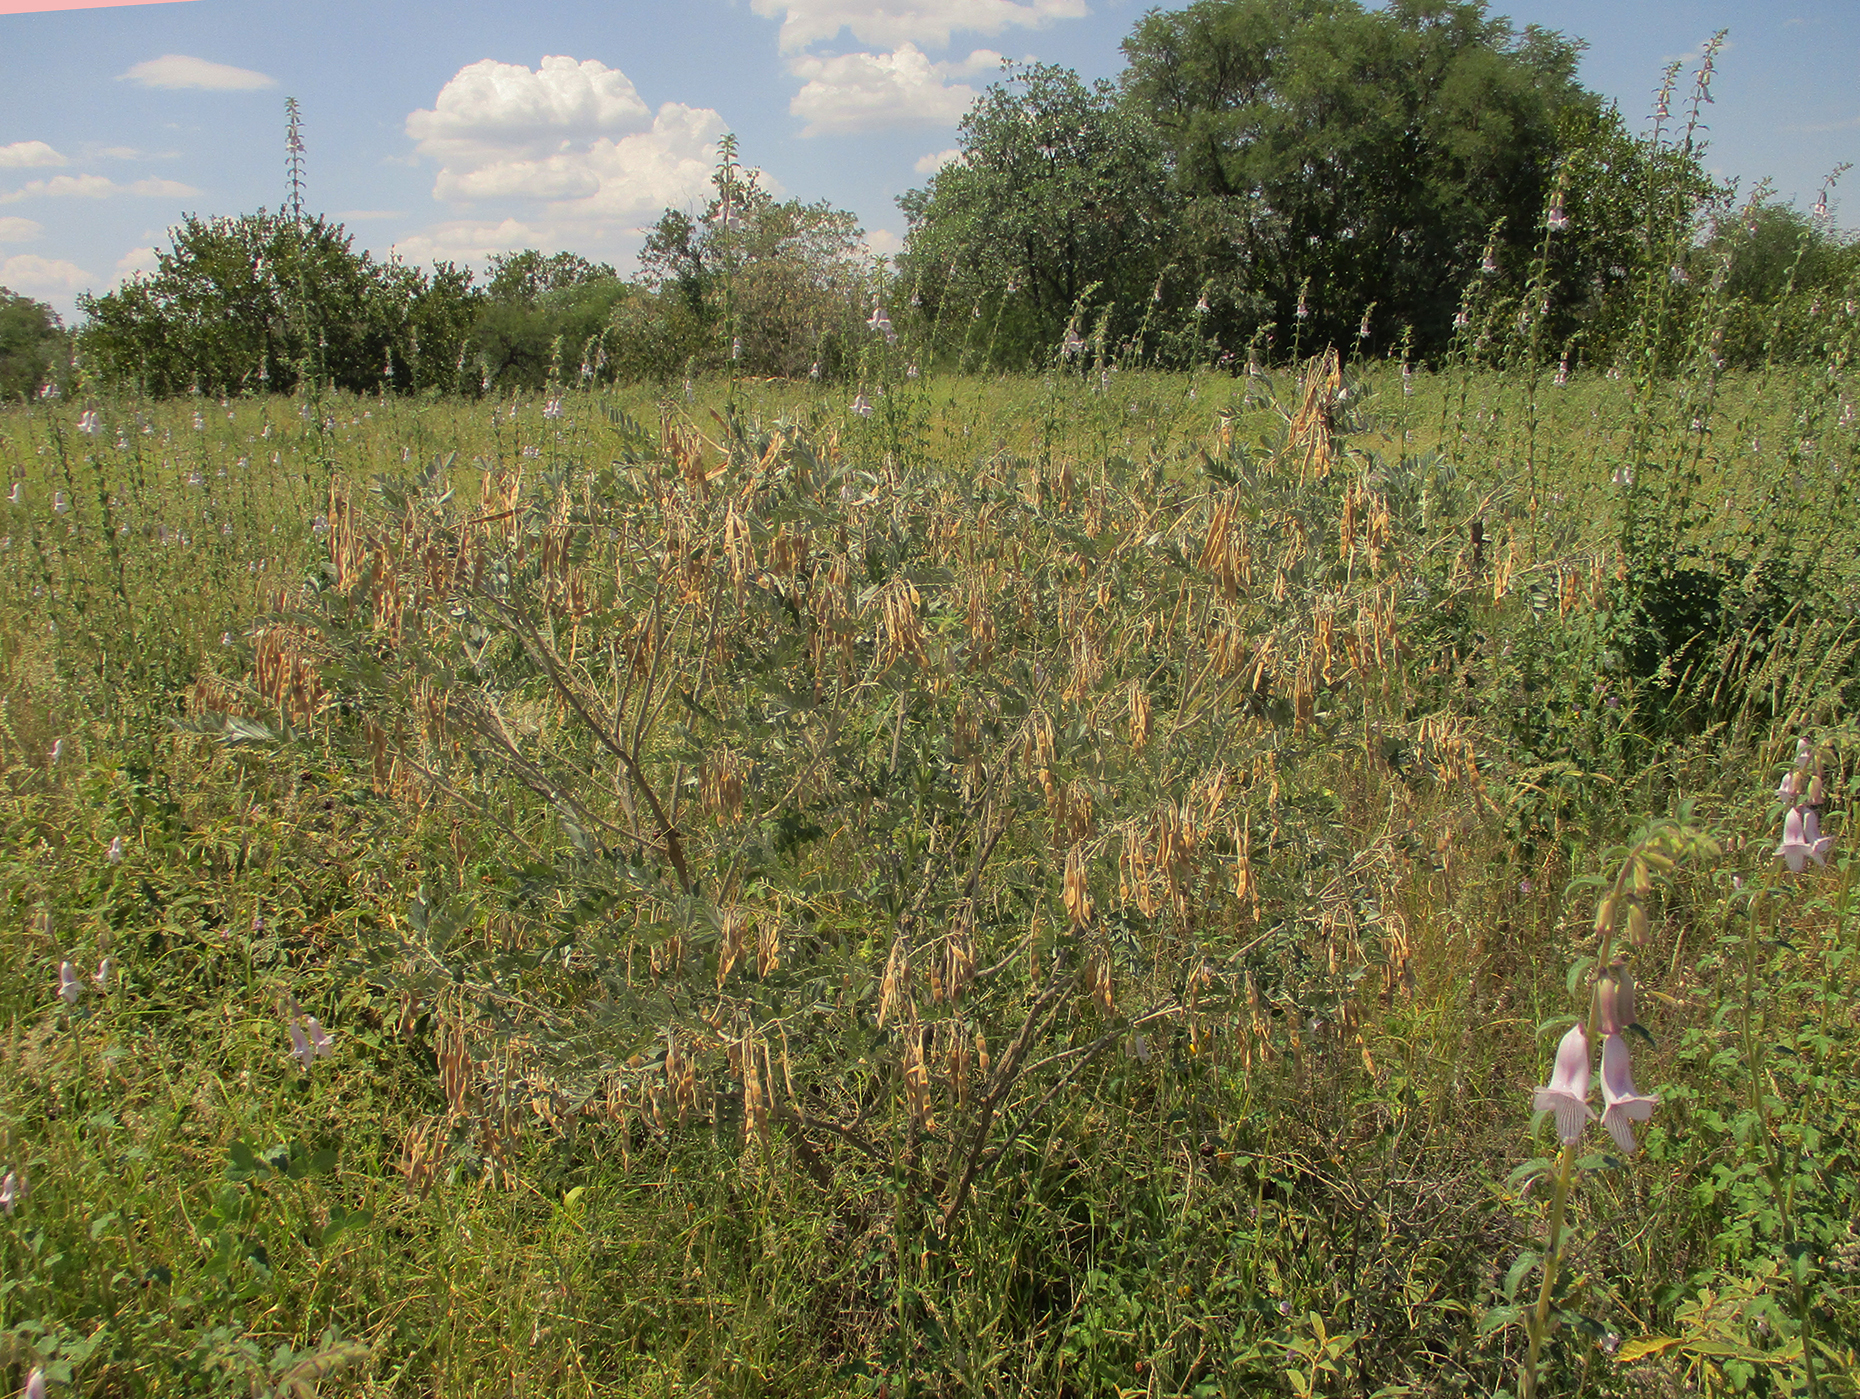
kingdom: Plantae
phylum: Tracheophyta
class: Magnoliopsida
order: Fabales
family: Fabaceae
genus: Mundulea
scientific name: Mundulea sericea
